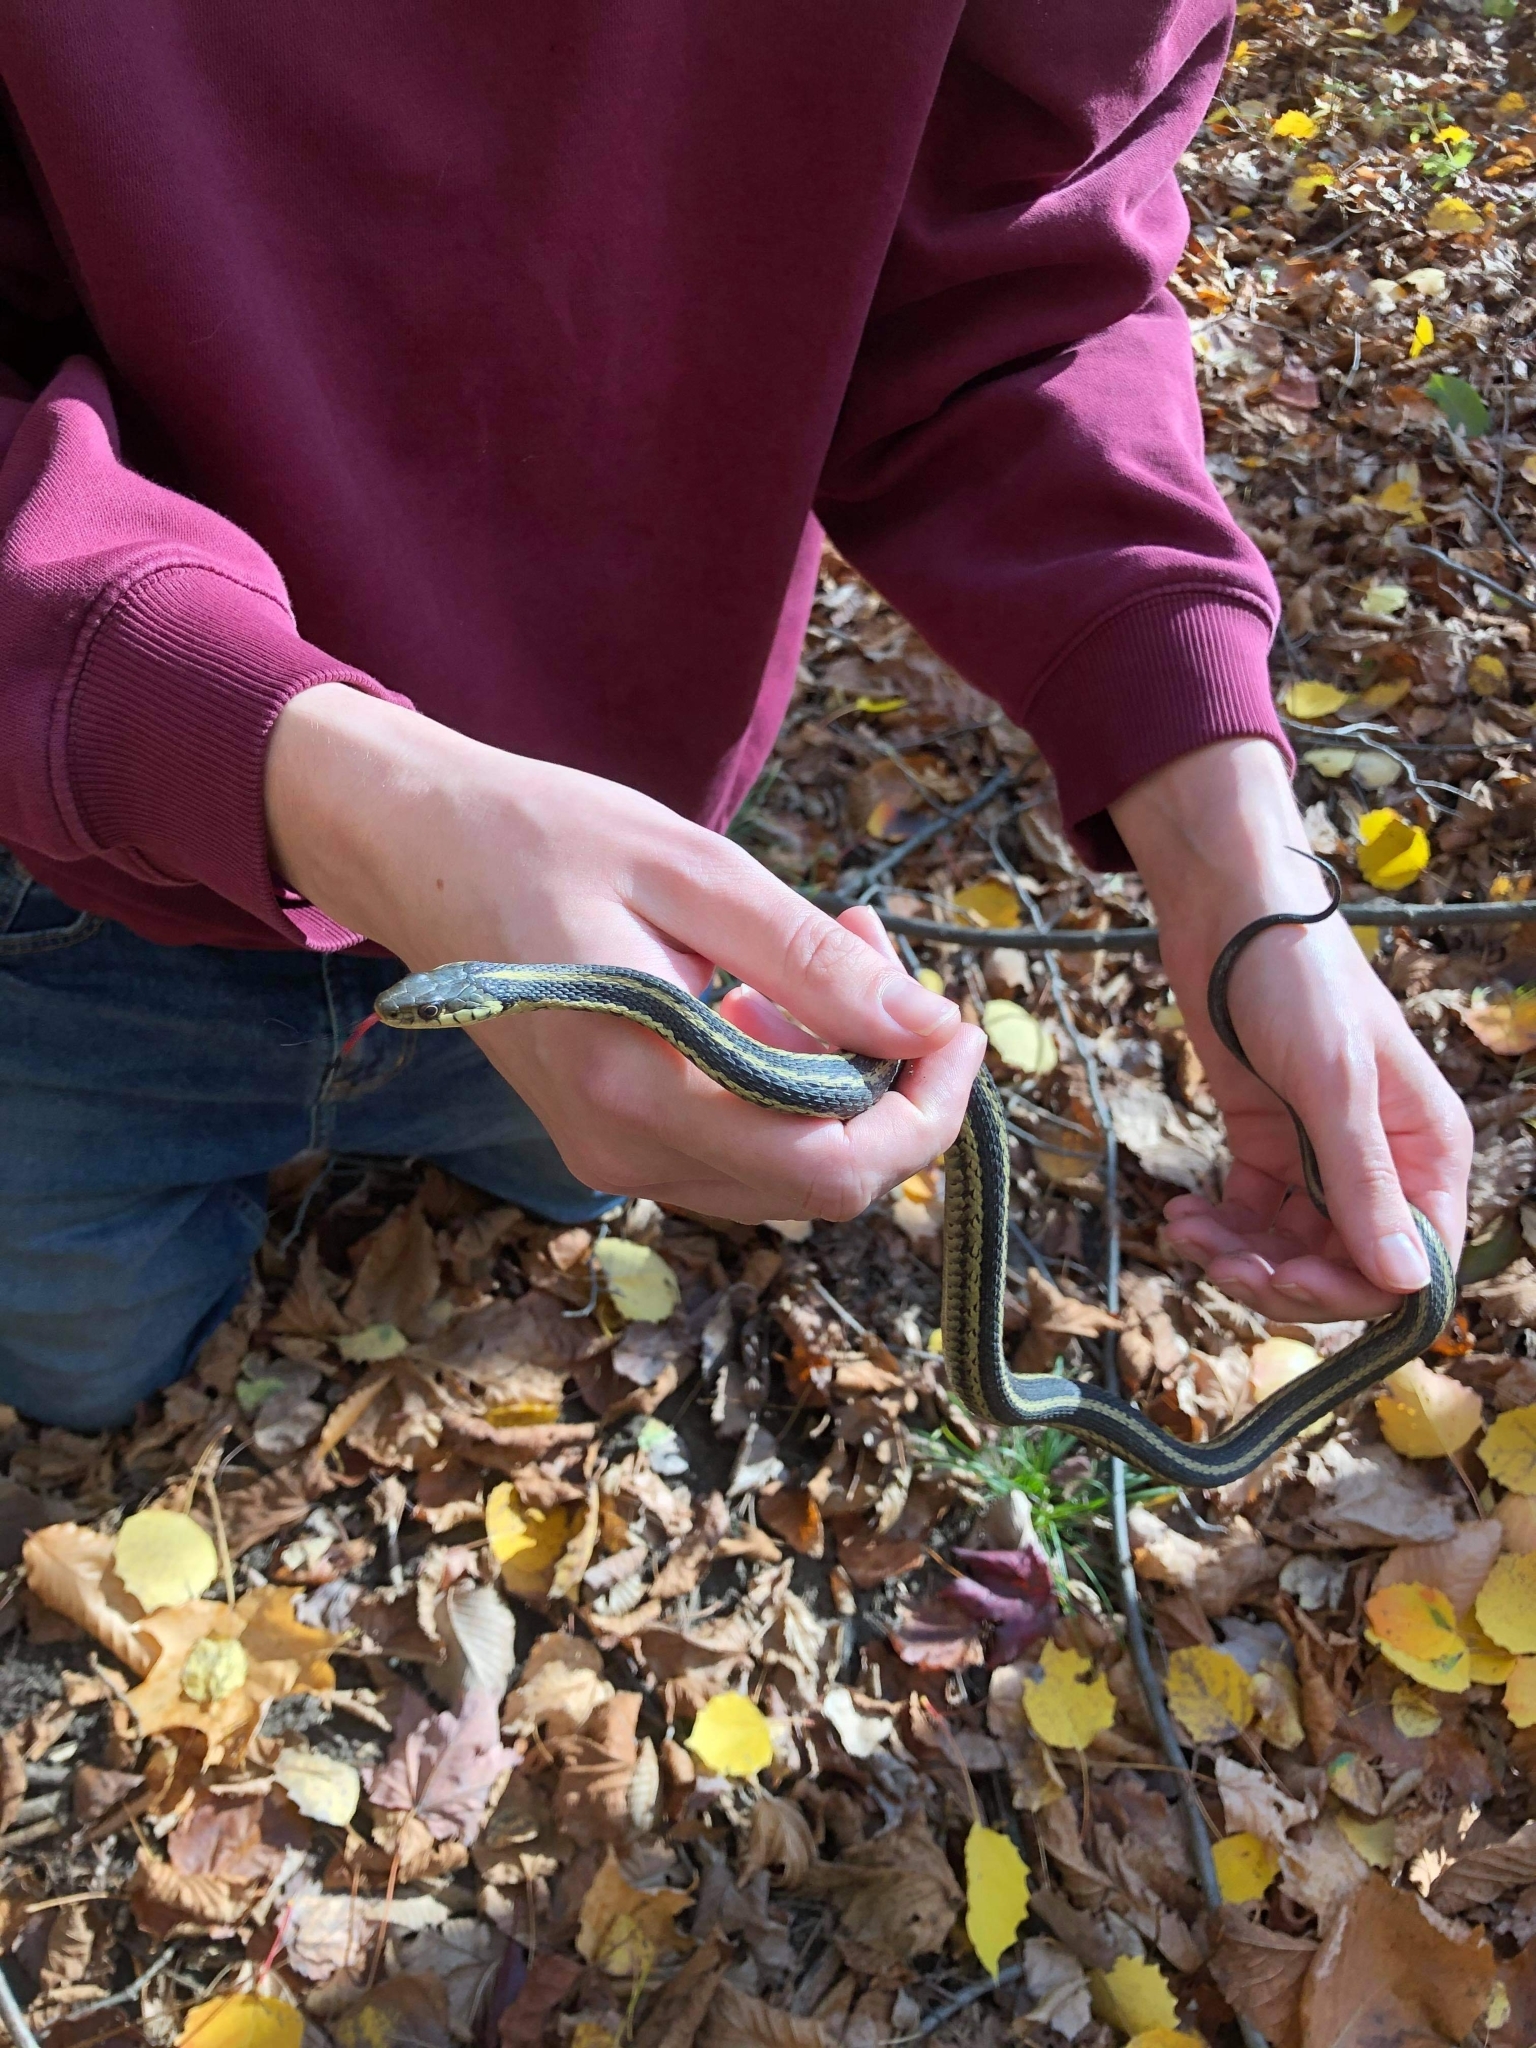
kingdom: Animalia
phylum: Chordata
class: Squamata
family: Colubridae
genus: Thamnophis
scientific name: Thamnophis sirtalis
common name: Common garter snake
